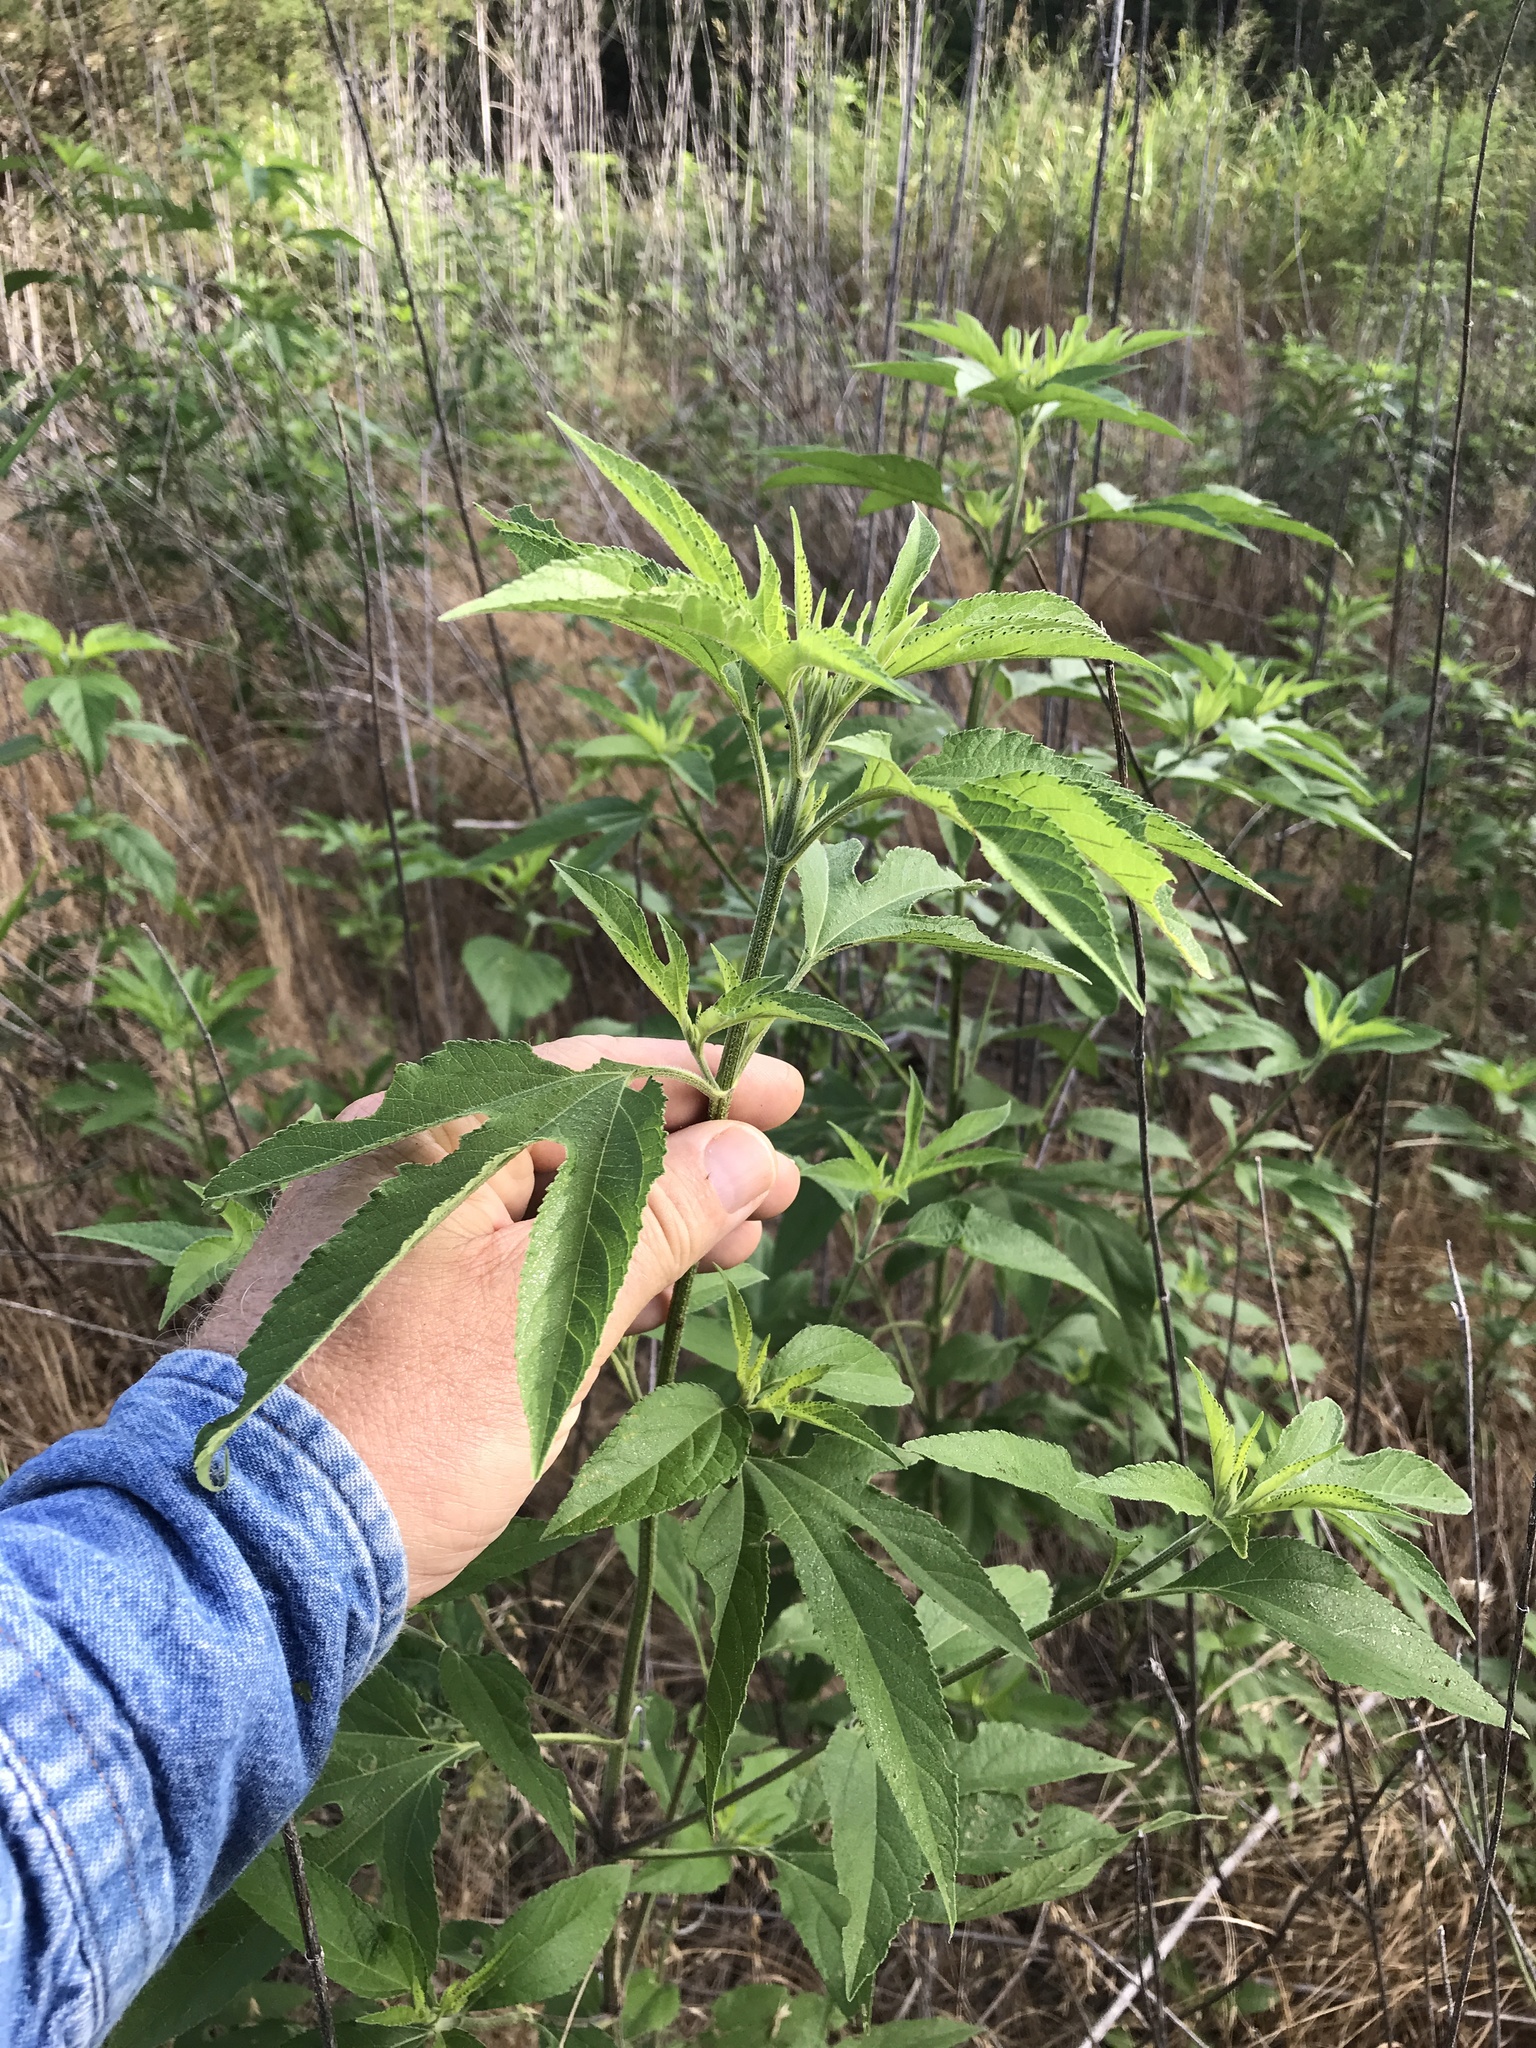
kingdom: Plantae
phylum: Tracheophyta
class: Magnoliopsida
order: Asterales
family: Asteraceae
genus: Ambrosia
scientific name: Ambrosia trifida
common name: Giant ragweed
